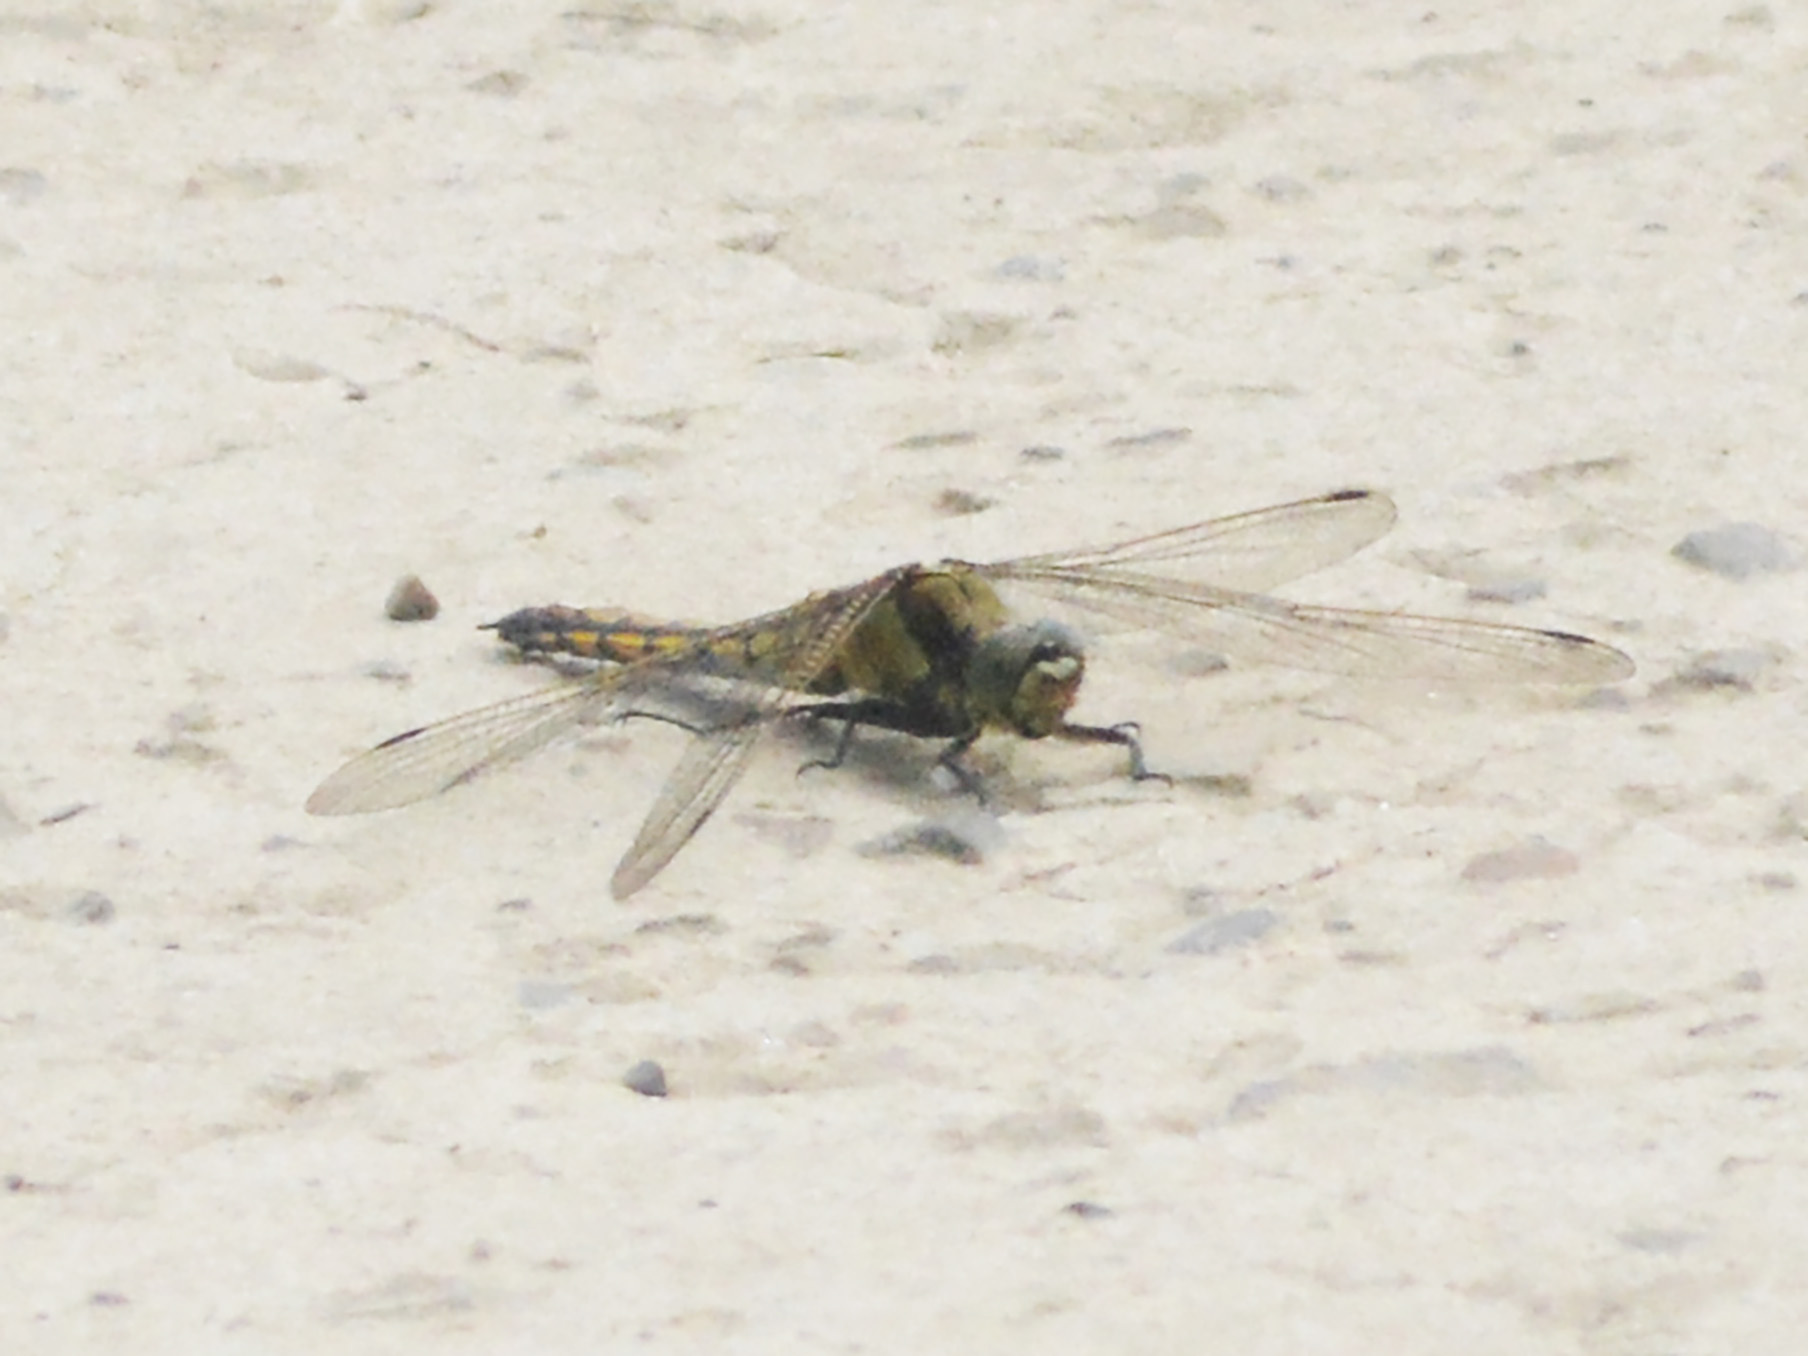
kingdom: Animalia
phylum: Arthropoda
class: Insecta
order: Odonata
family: Libellulidae
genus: Orthetrum
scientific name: Orthetrum cancellatum
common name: Black-tailed skimmer
